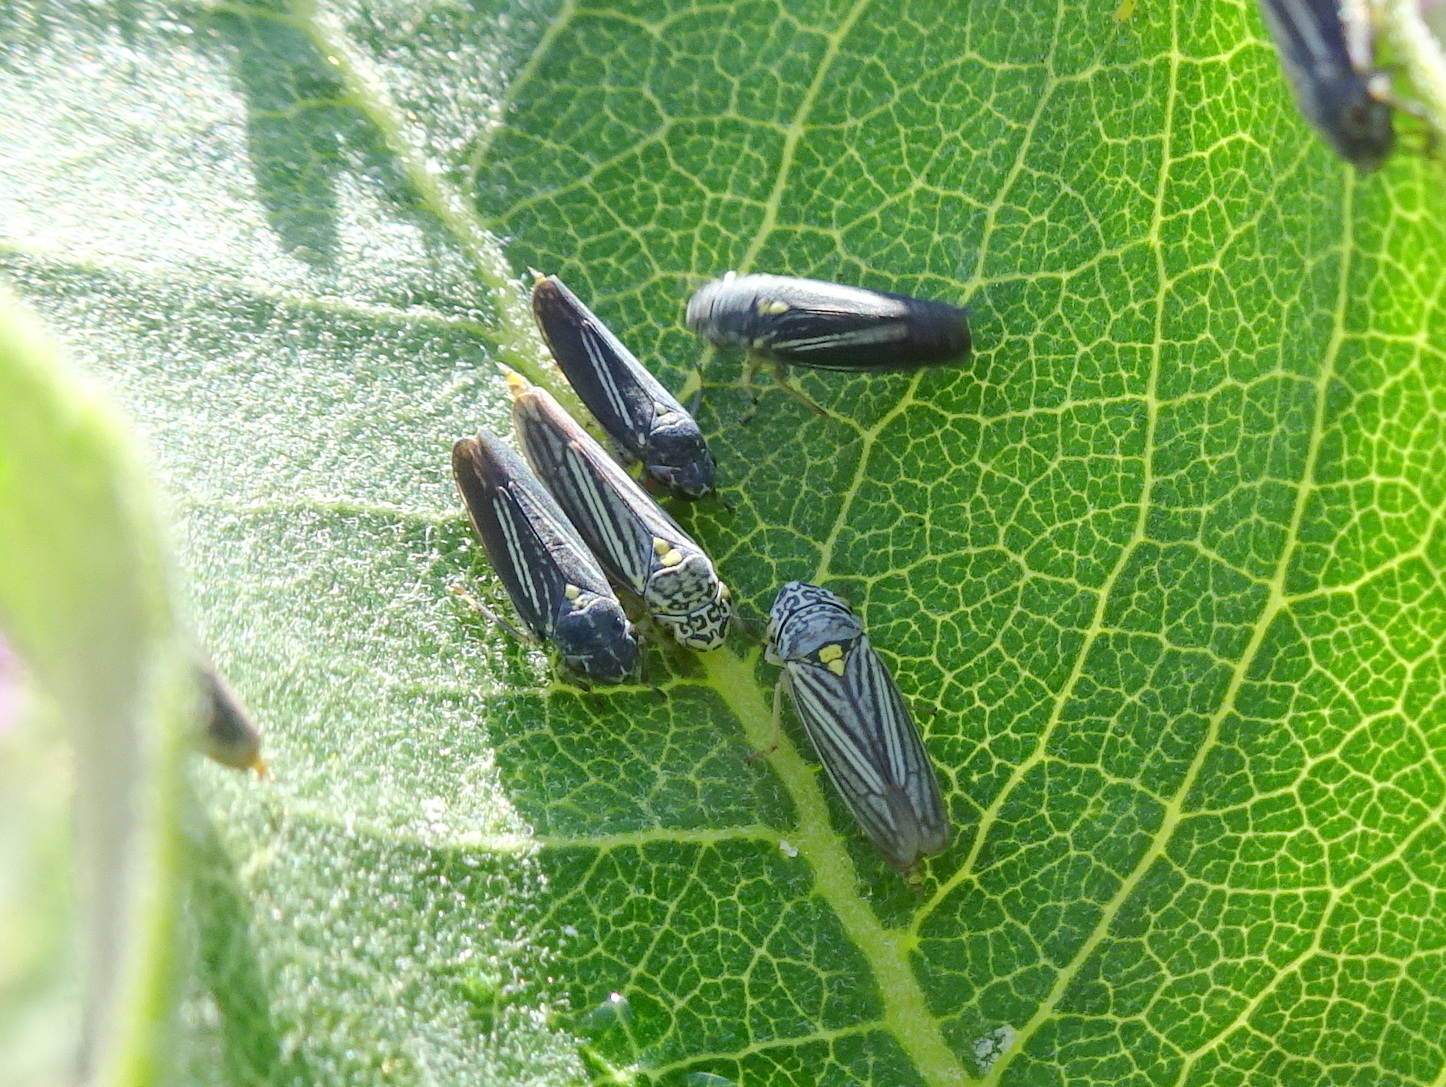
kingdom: Animalia
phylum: Arthropoda
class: Insecta
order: Hemiptera
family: Cicadellidae
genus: Neokolla
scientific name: Neokolla hieroglyphica
